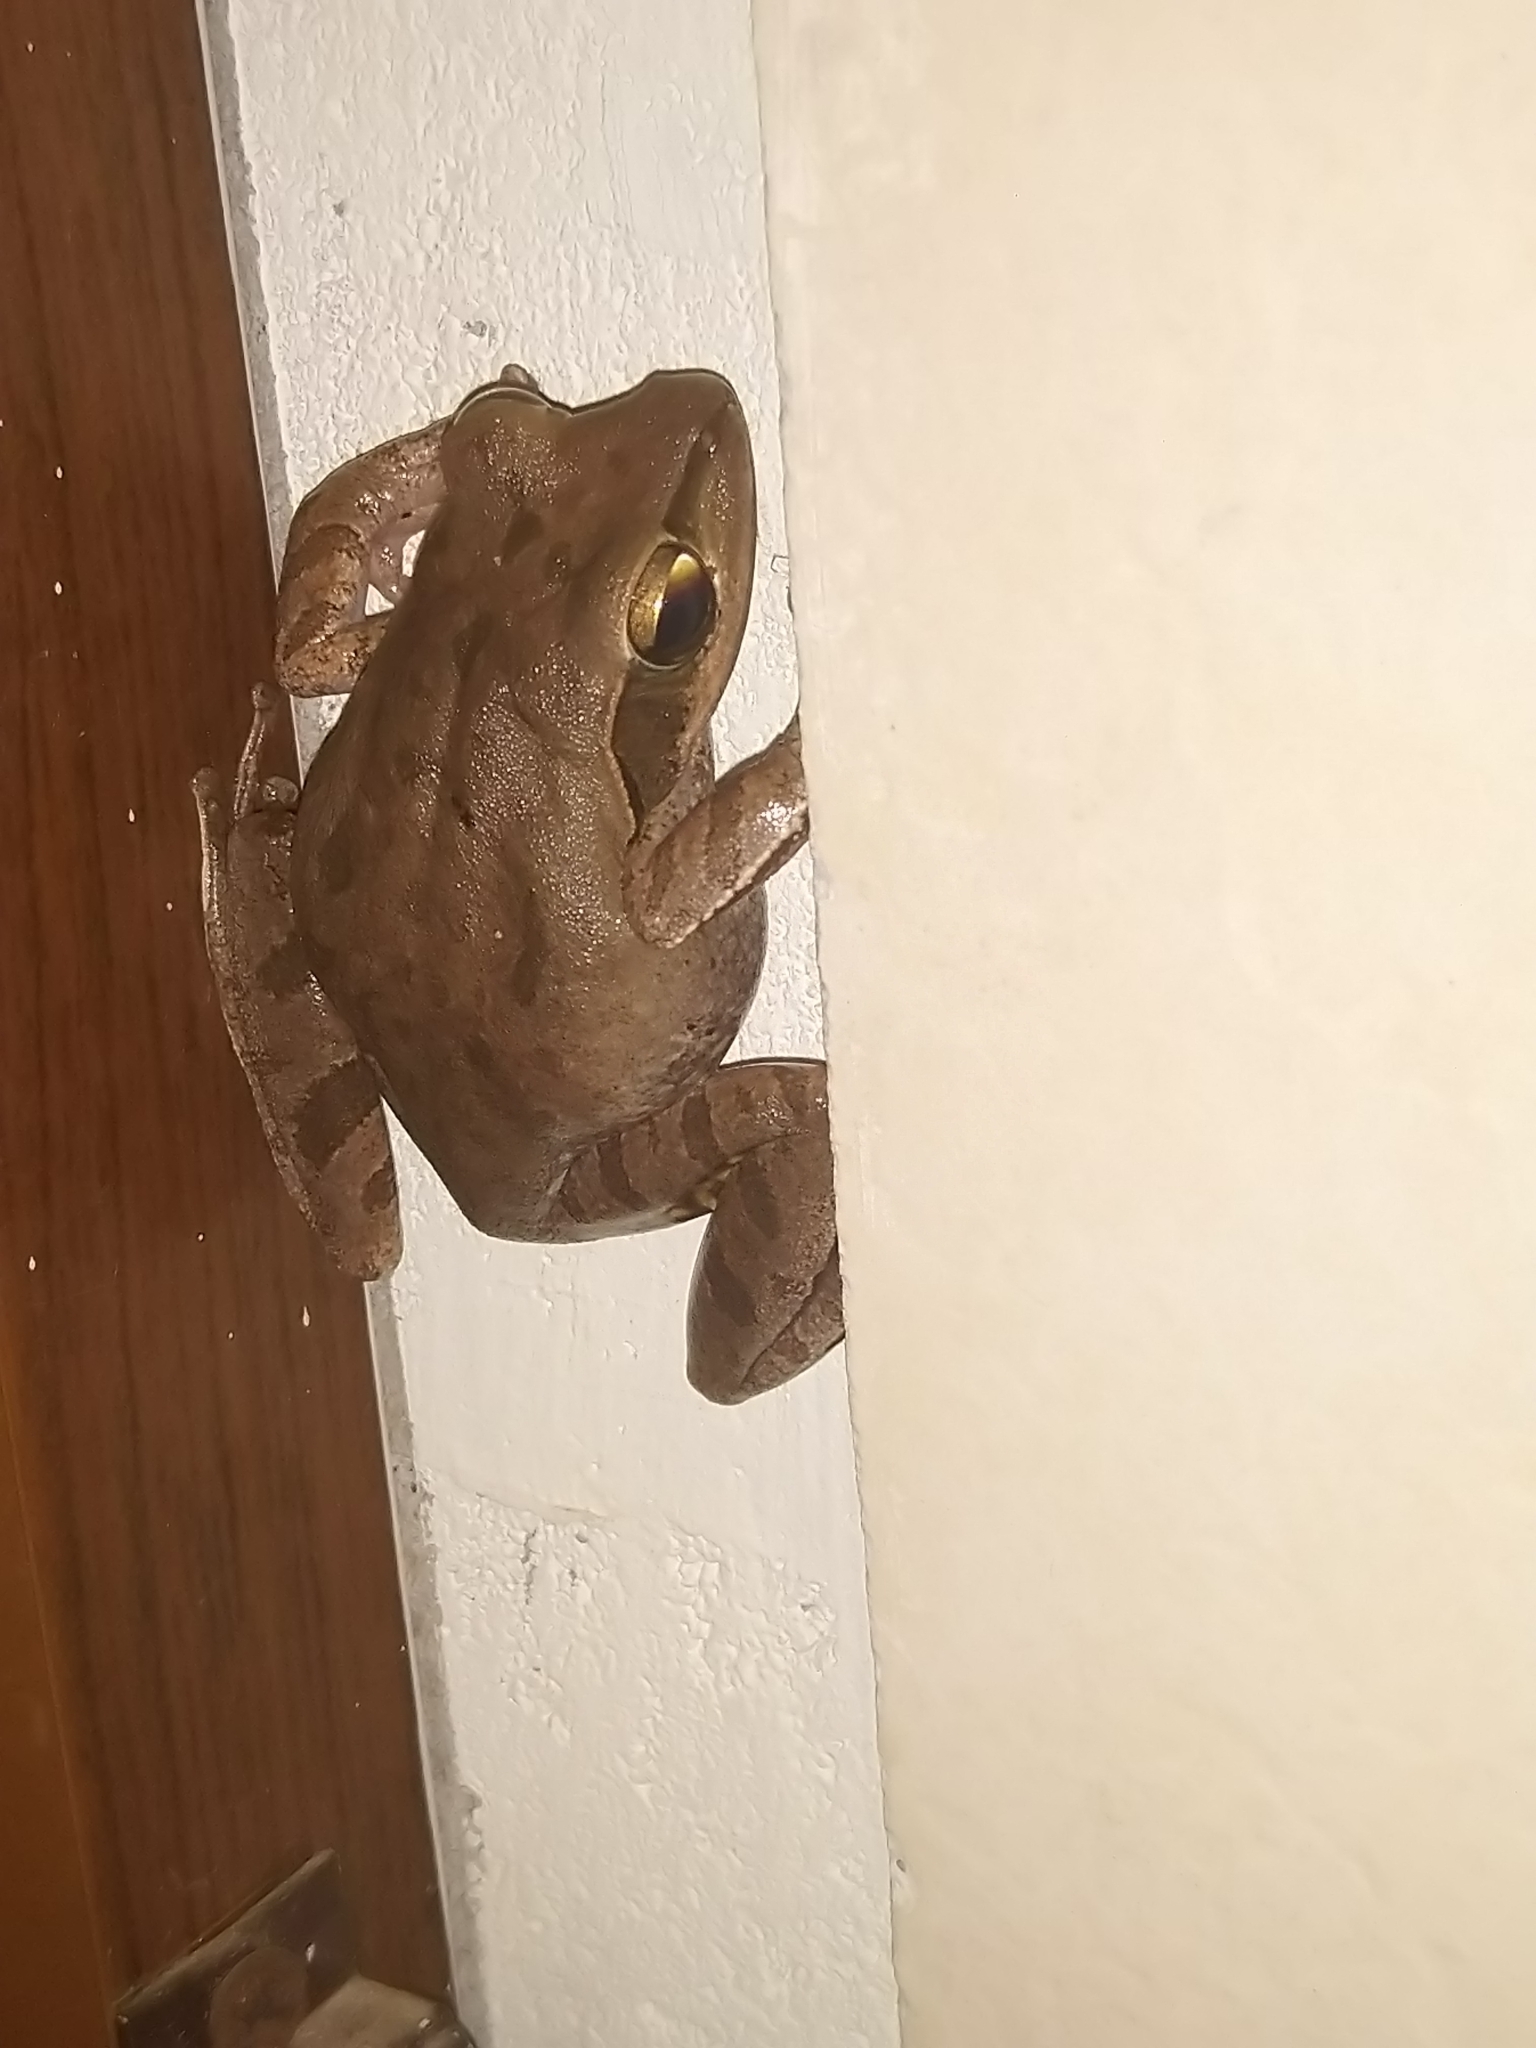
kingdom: Animalia
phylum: Chordata
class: Amphibia
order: Anura
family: Rhacophoridae
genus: Polypedates
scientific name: Polypedates maculatus
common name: Himalayan tree frog
